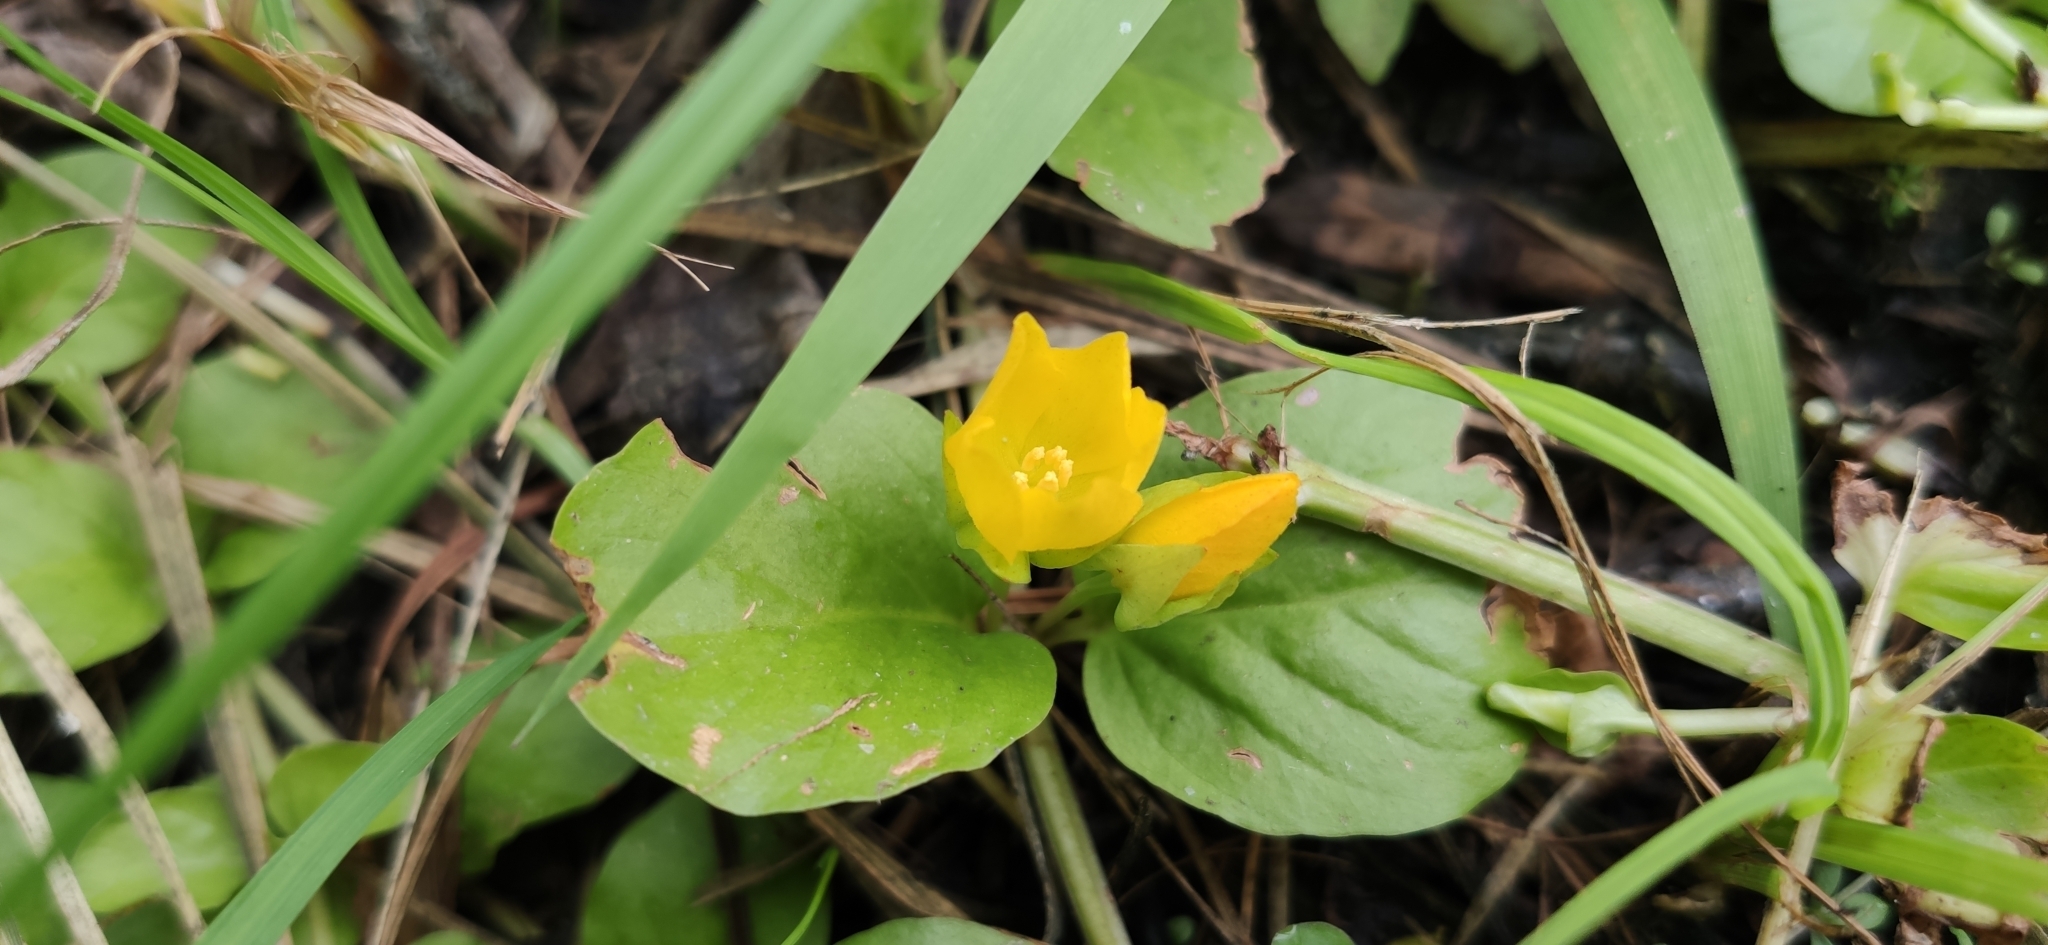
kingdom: Plantae
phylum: Tracheophyta
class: Magnoliopsida
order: Ericales
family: Primulaceae
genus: Lysimachia
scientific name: Lysimachia nummularia
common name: Moneywort
